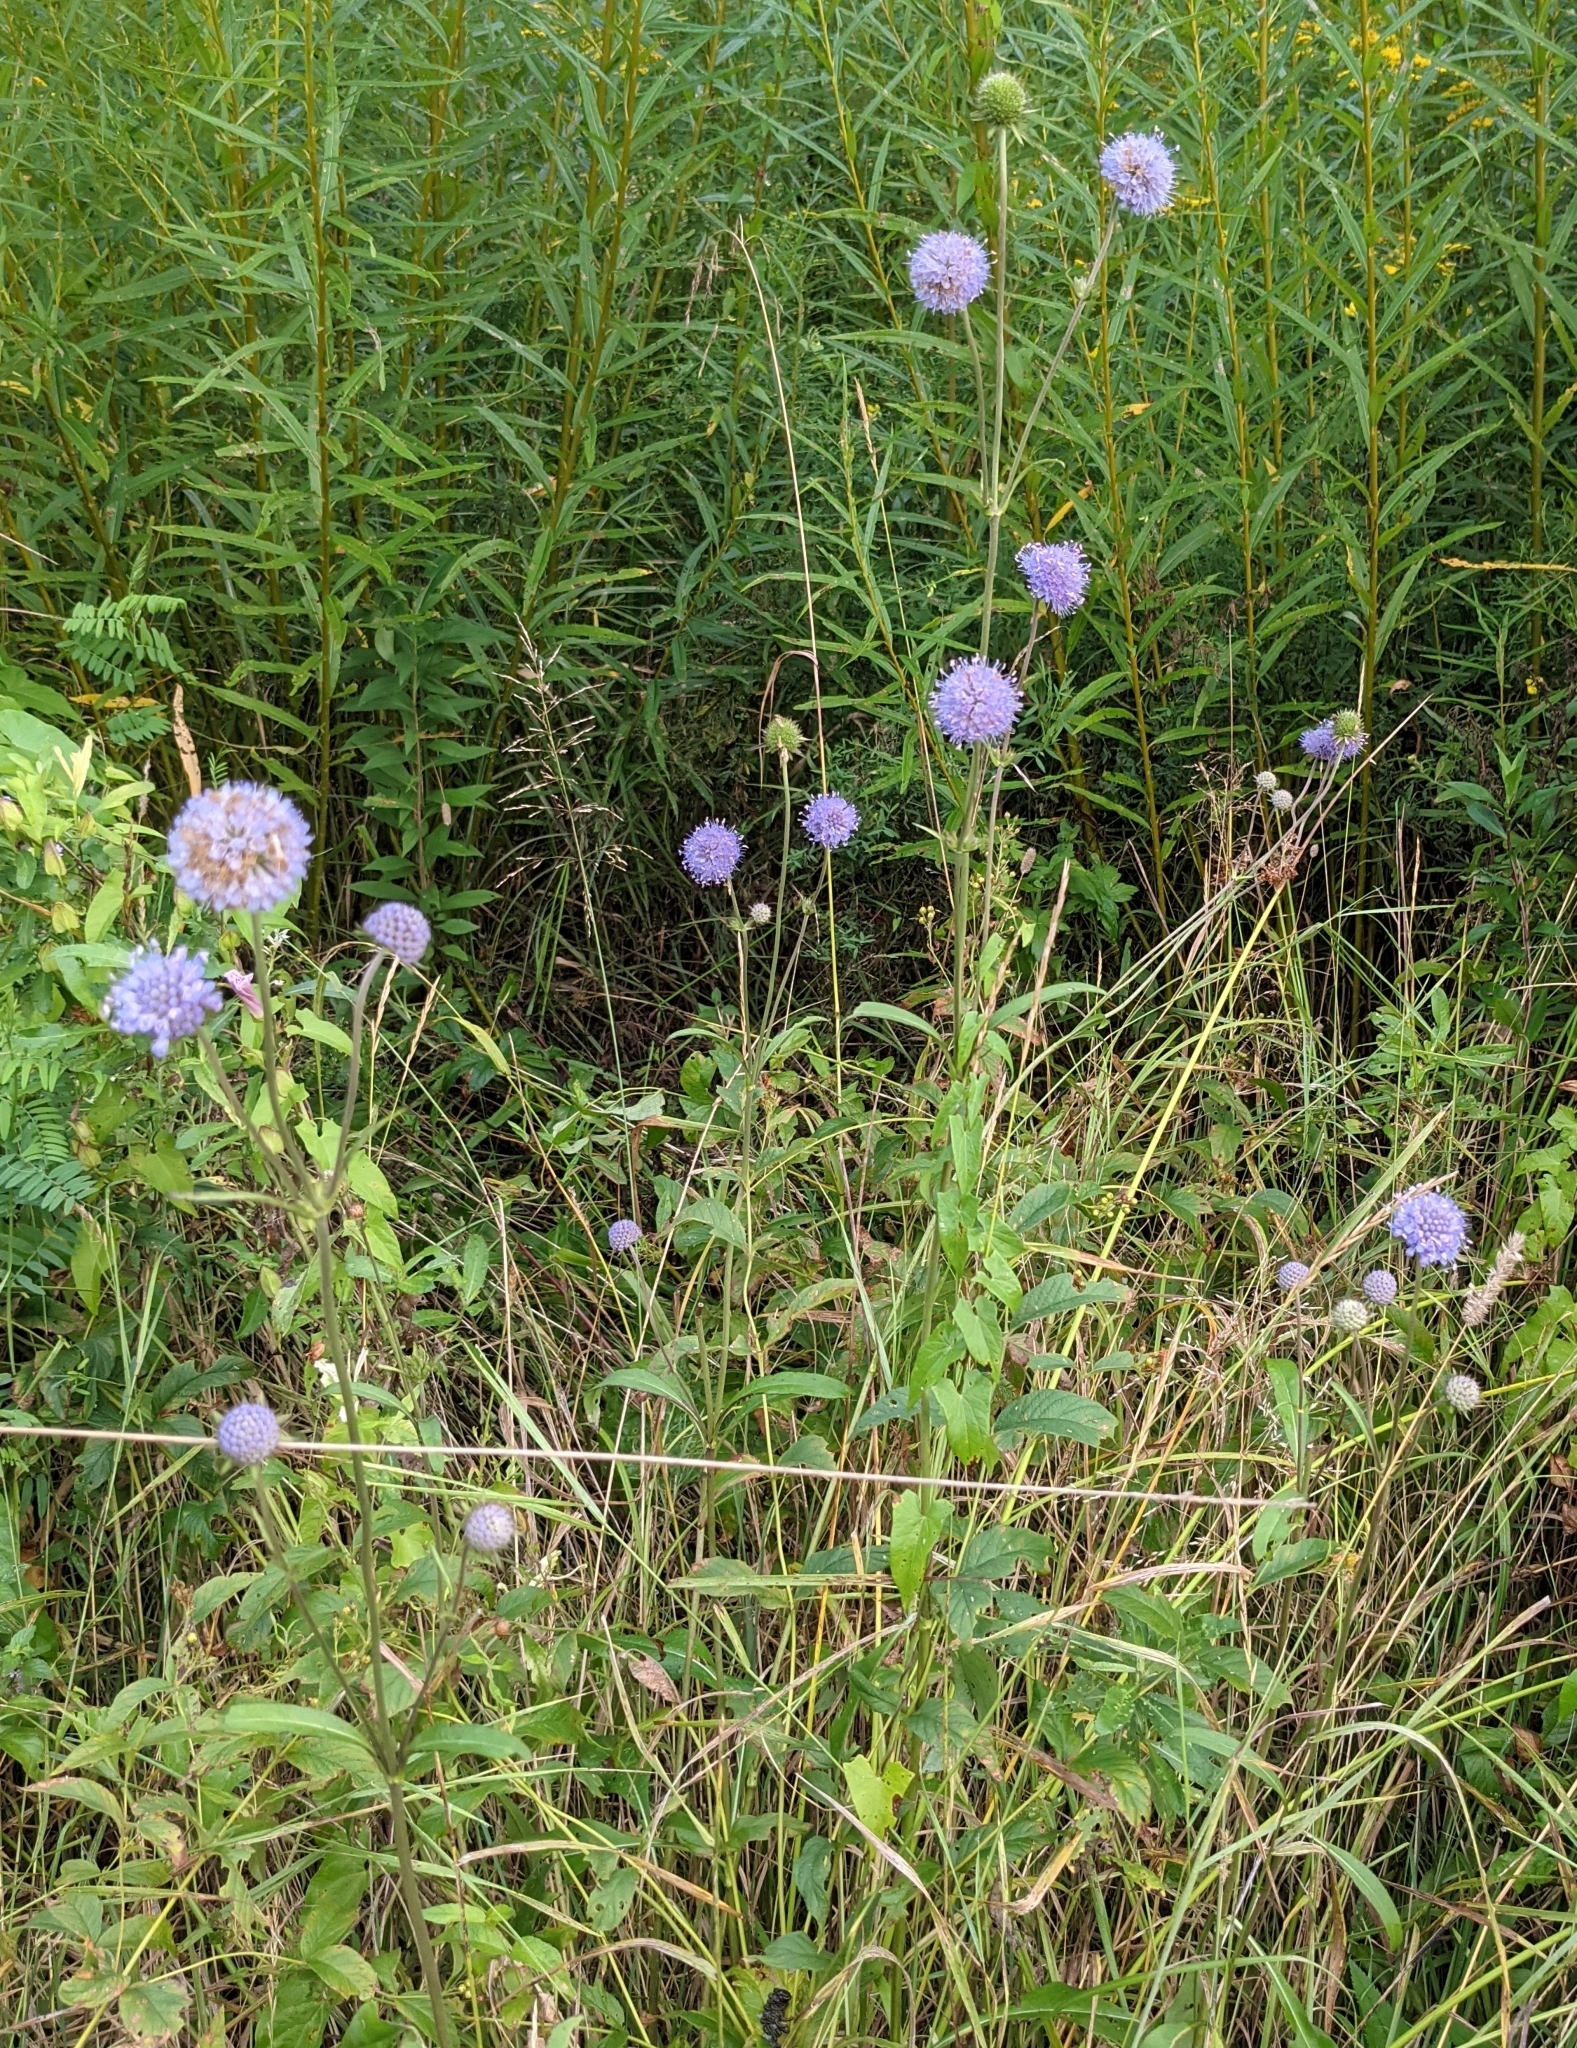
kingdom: Plantae
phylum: Tracheophyta
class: Magnoliopsida
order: Dipsacales
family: Caprifoliaceae
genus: Succisa
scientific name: Succisa pratensis
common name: Devil's-bit
